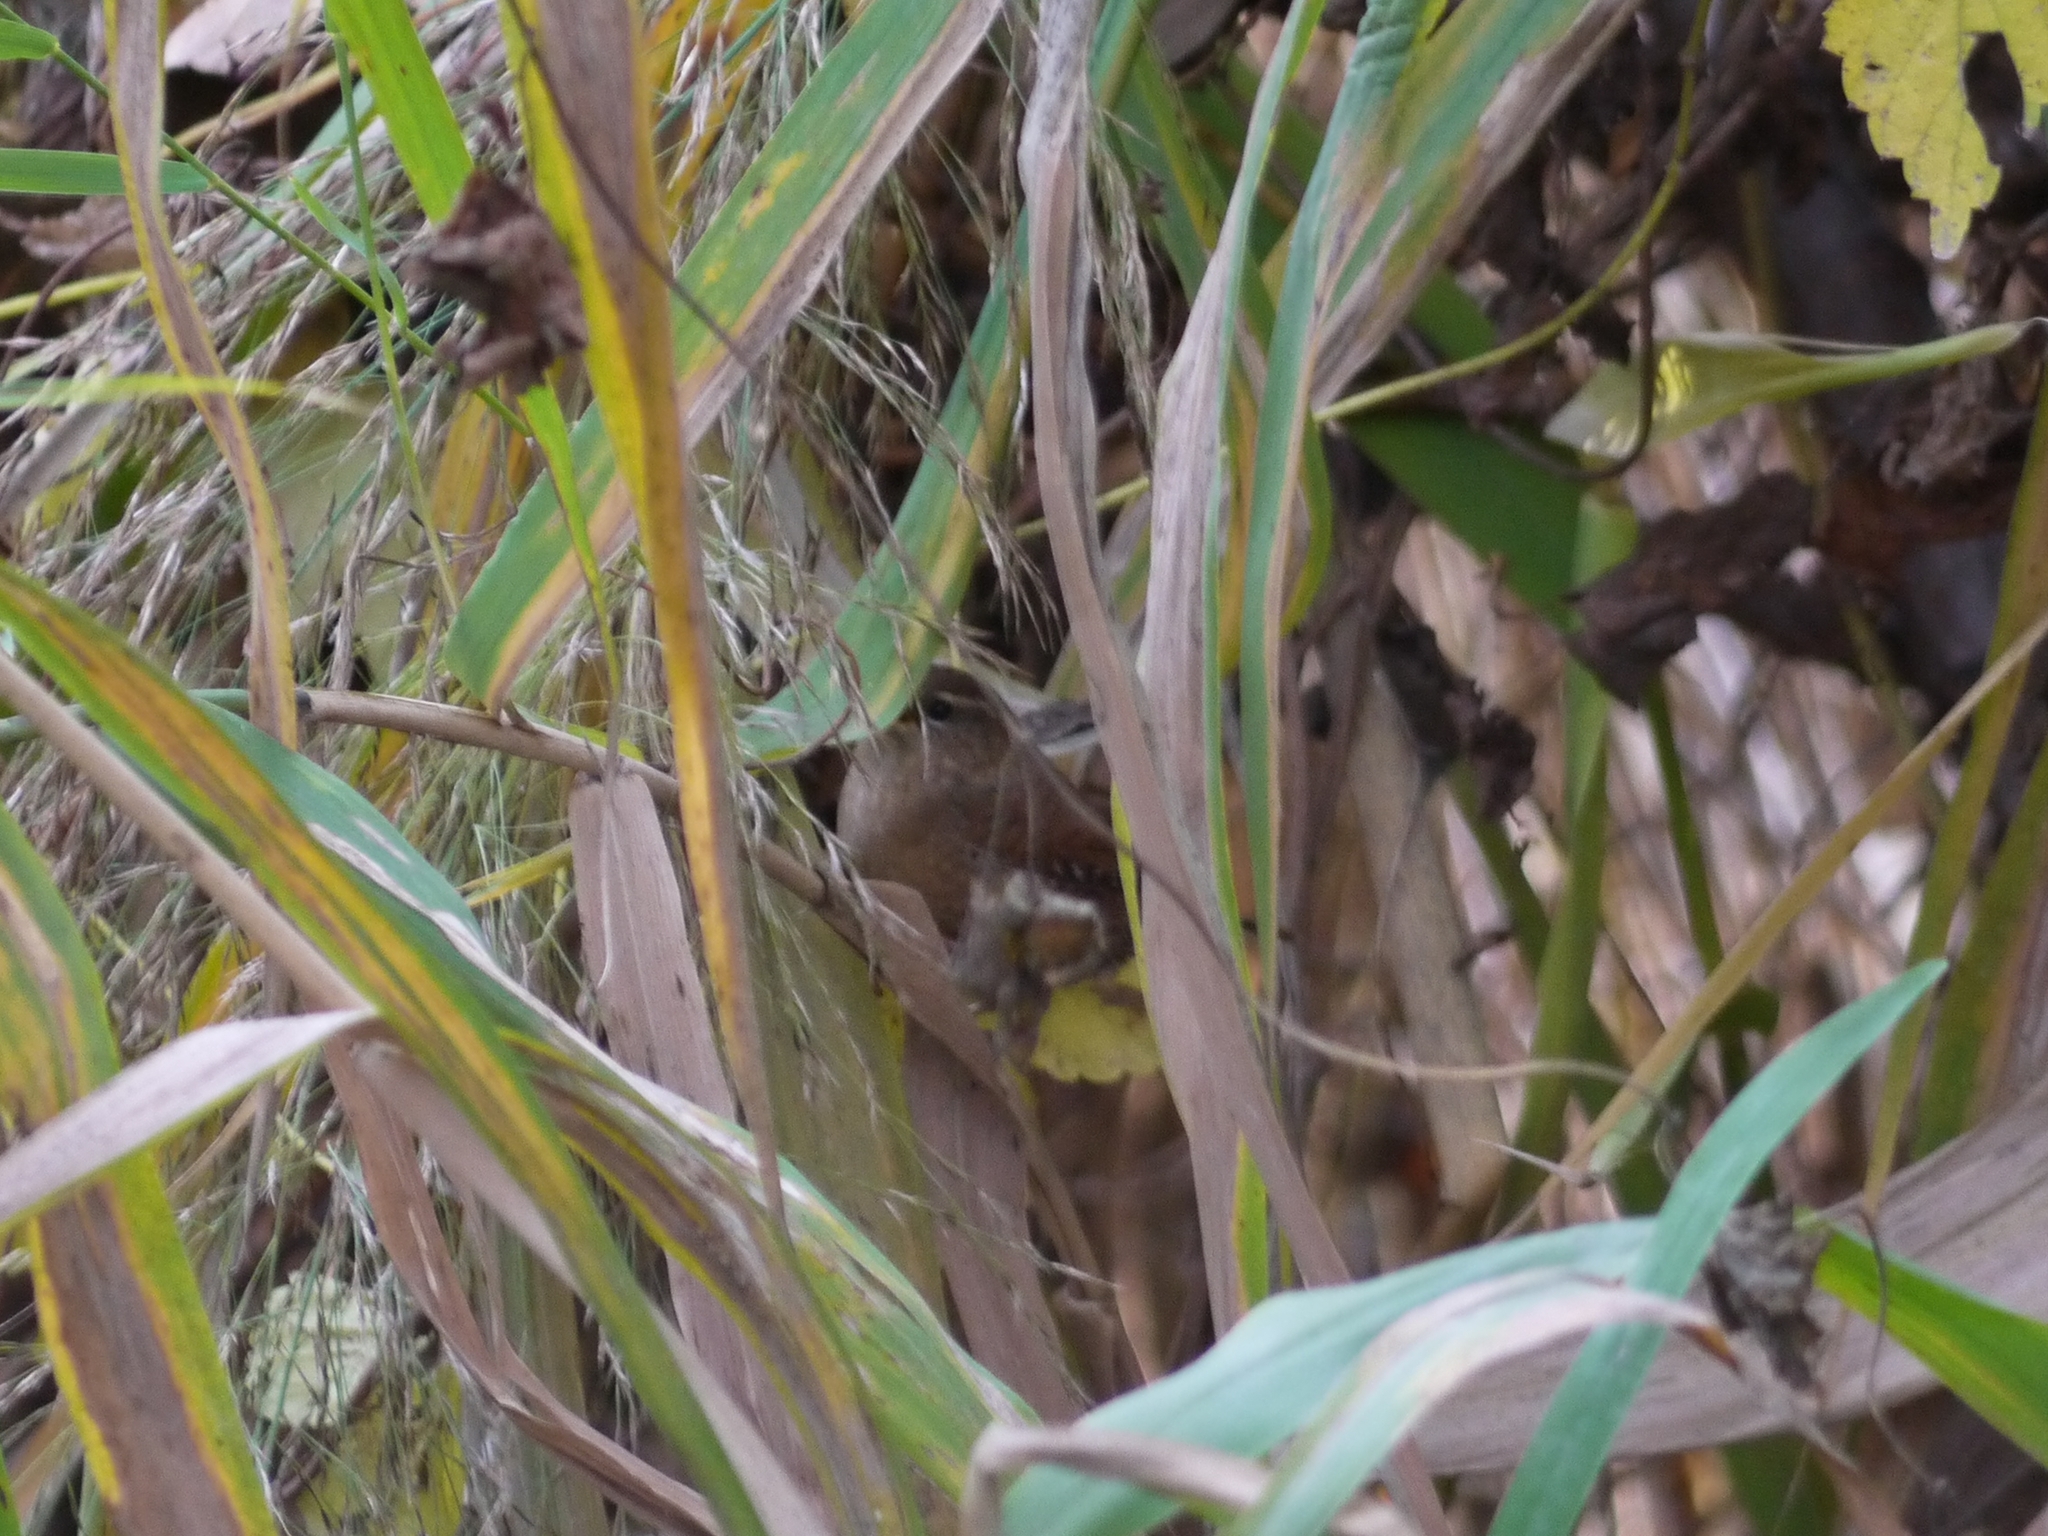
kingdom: Animalia
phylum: Chordata
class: Aves
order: Passeriformes
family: Troglodytidae
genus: Troglodytes
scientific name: Troglodytes troglodytes
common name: Eurasian wren
